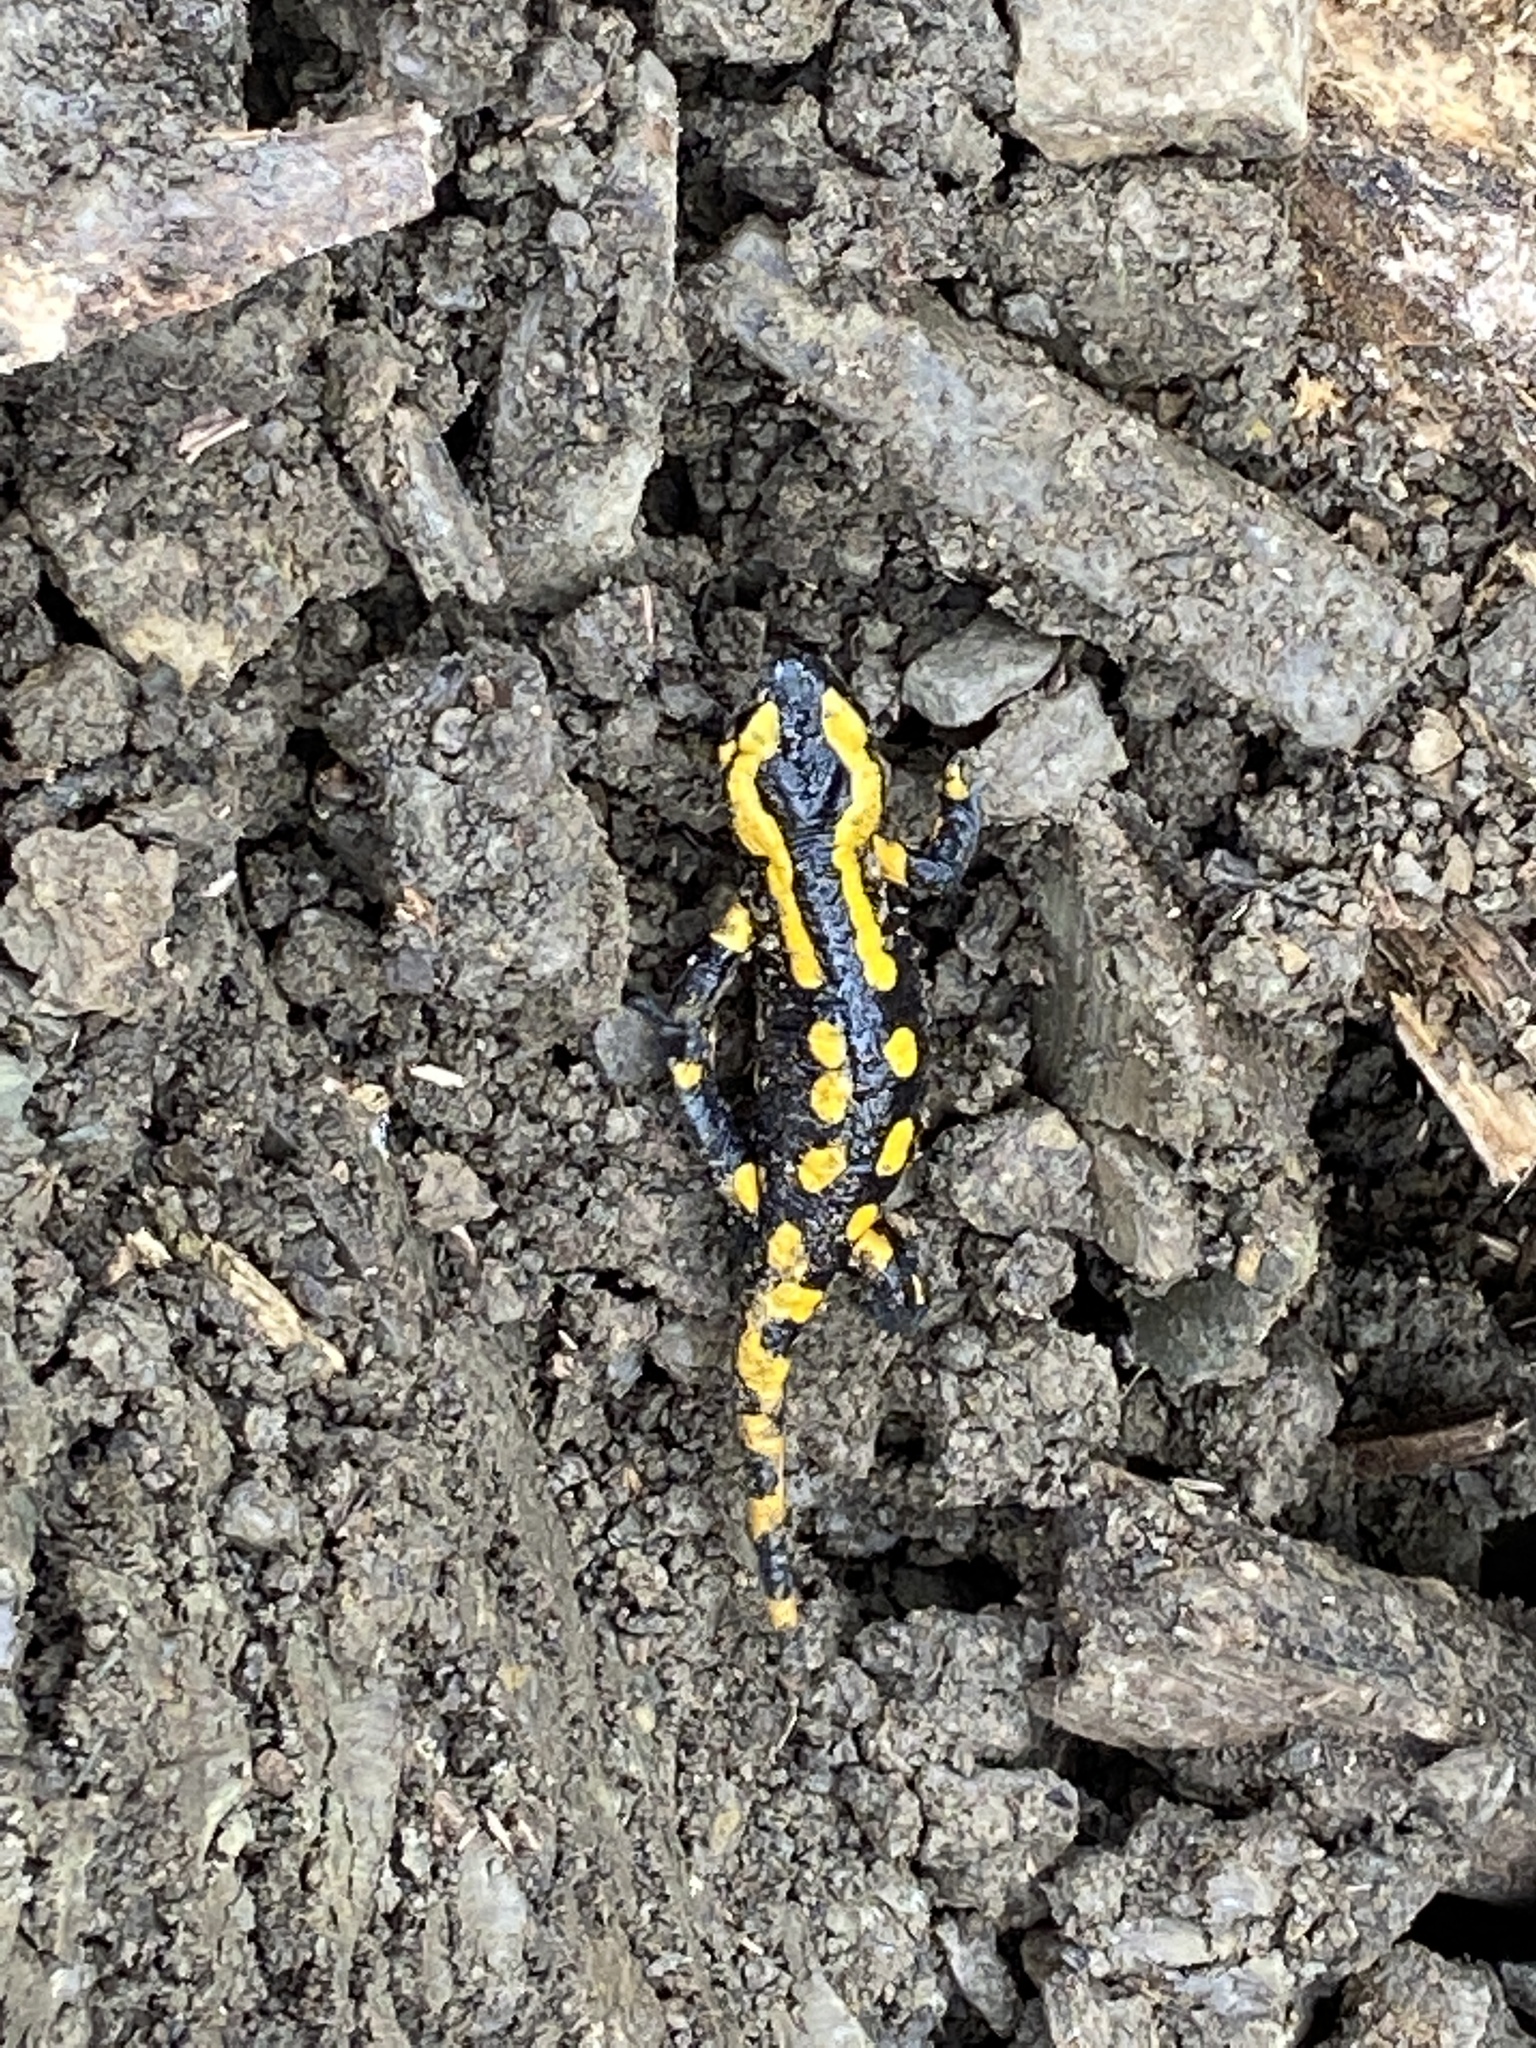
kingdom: Animalia
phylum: Chordata
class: Amphibia
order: Caudata
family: Salamandridae
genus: Salamandra
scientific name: Salamandra salamandra
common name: Fire salamander
